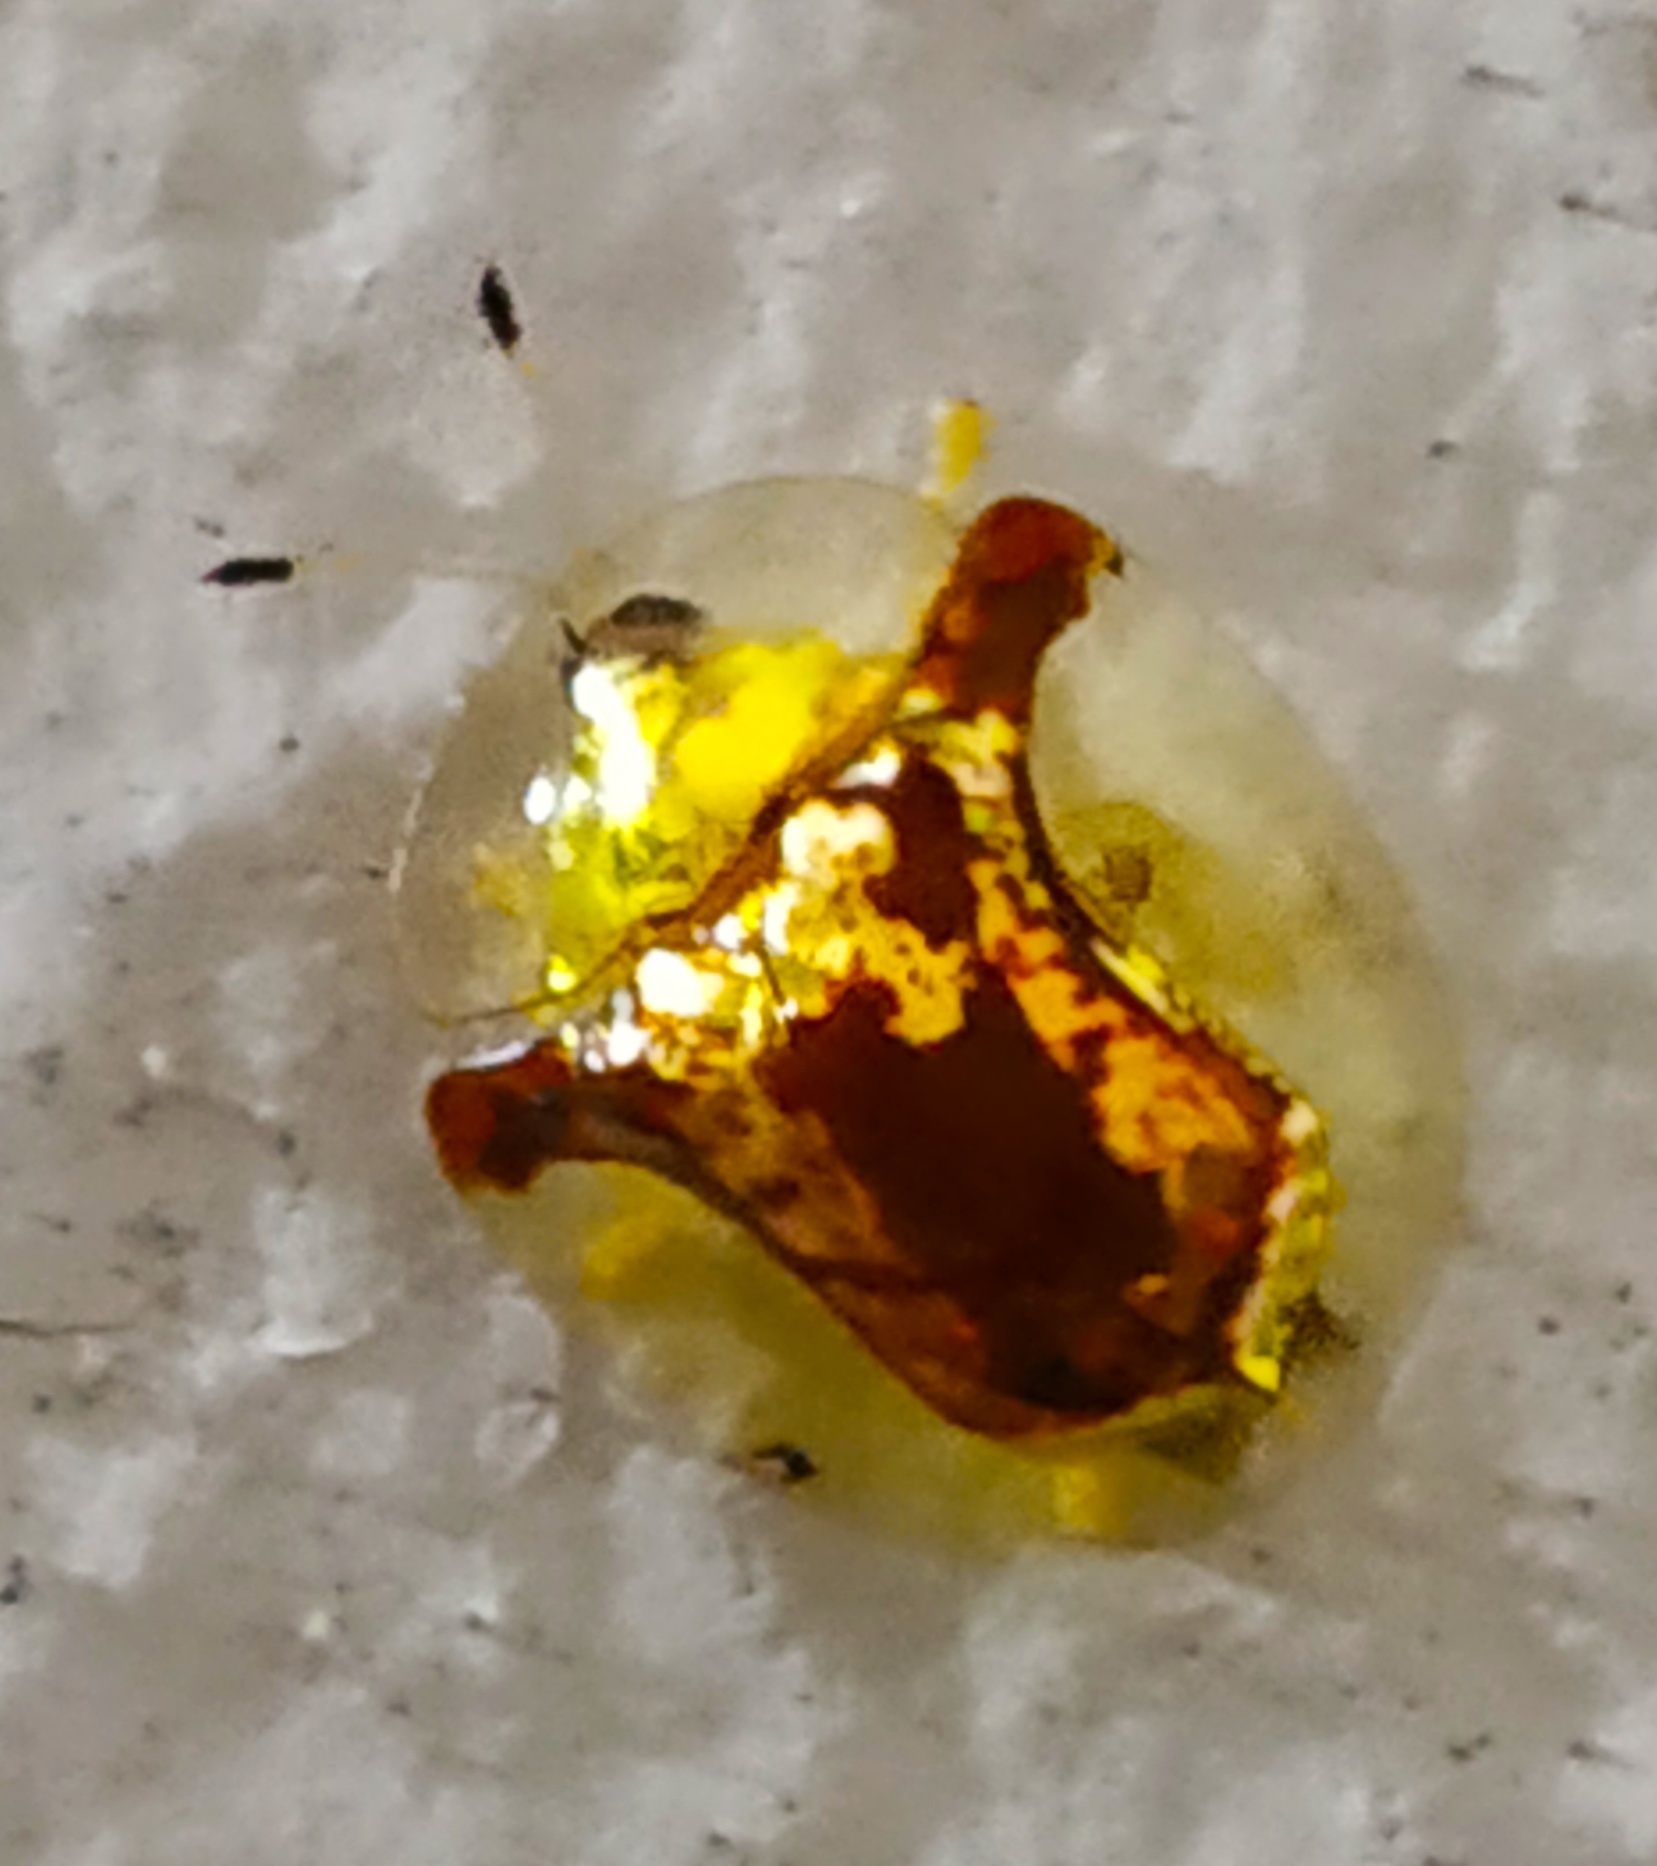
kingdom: Animalia
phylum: Arthropoda
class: Insecta
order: Coleoptera
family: Chrysomelidae
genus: Aspidimorpha
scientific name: Aspidimorpha furcata
